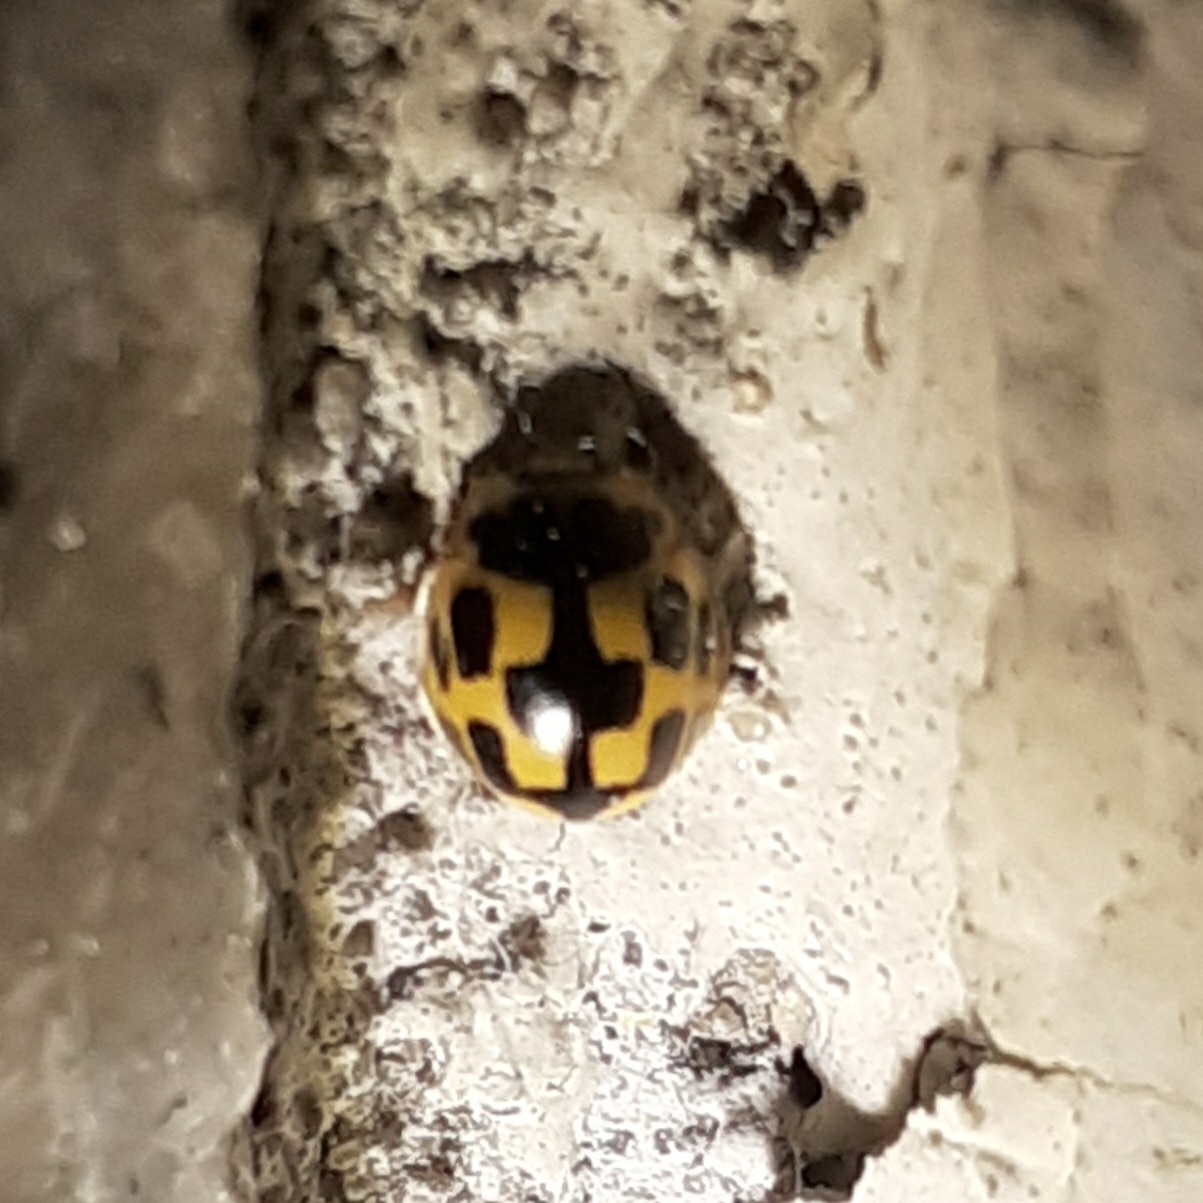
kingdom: Animalia
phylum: Arthropoda
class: Insecta
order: Coleoptera
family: Coccinellidae
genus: Propylaea
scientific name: Propylaea quatuordecimpunctata
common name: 14-spotted ladybird beetle
